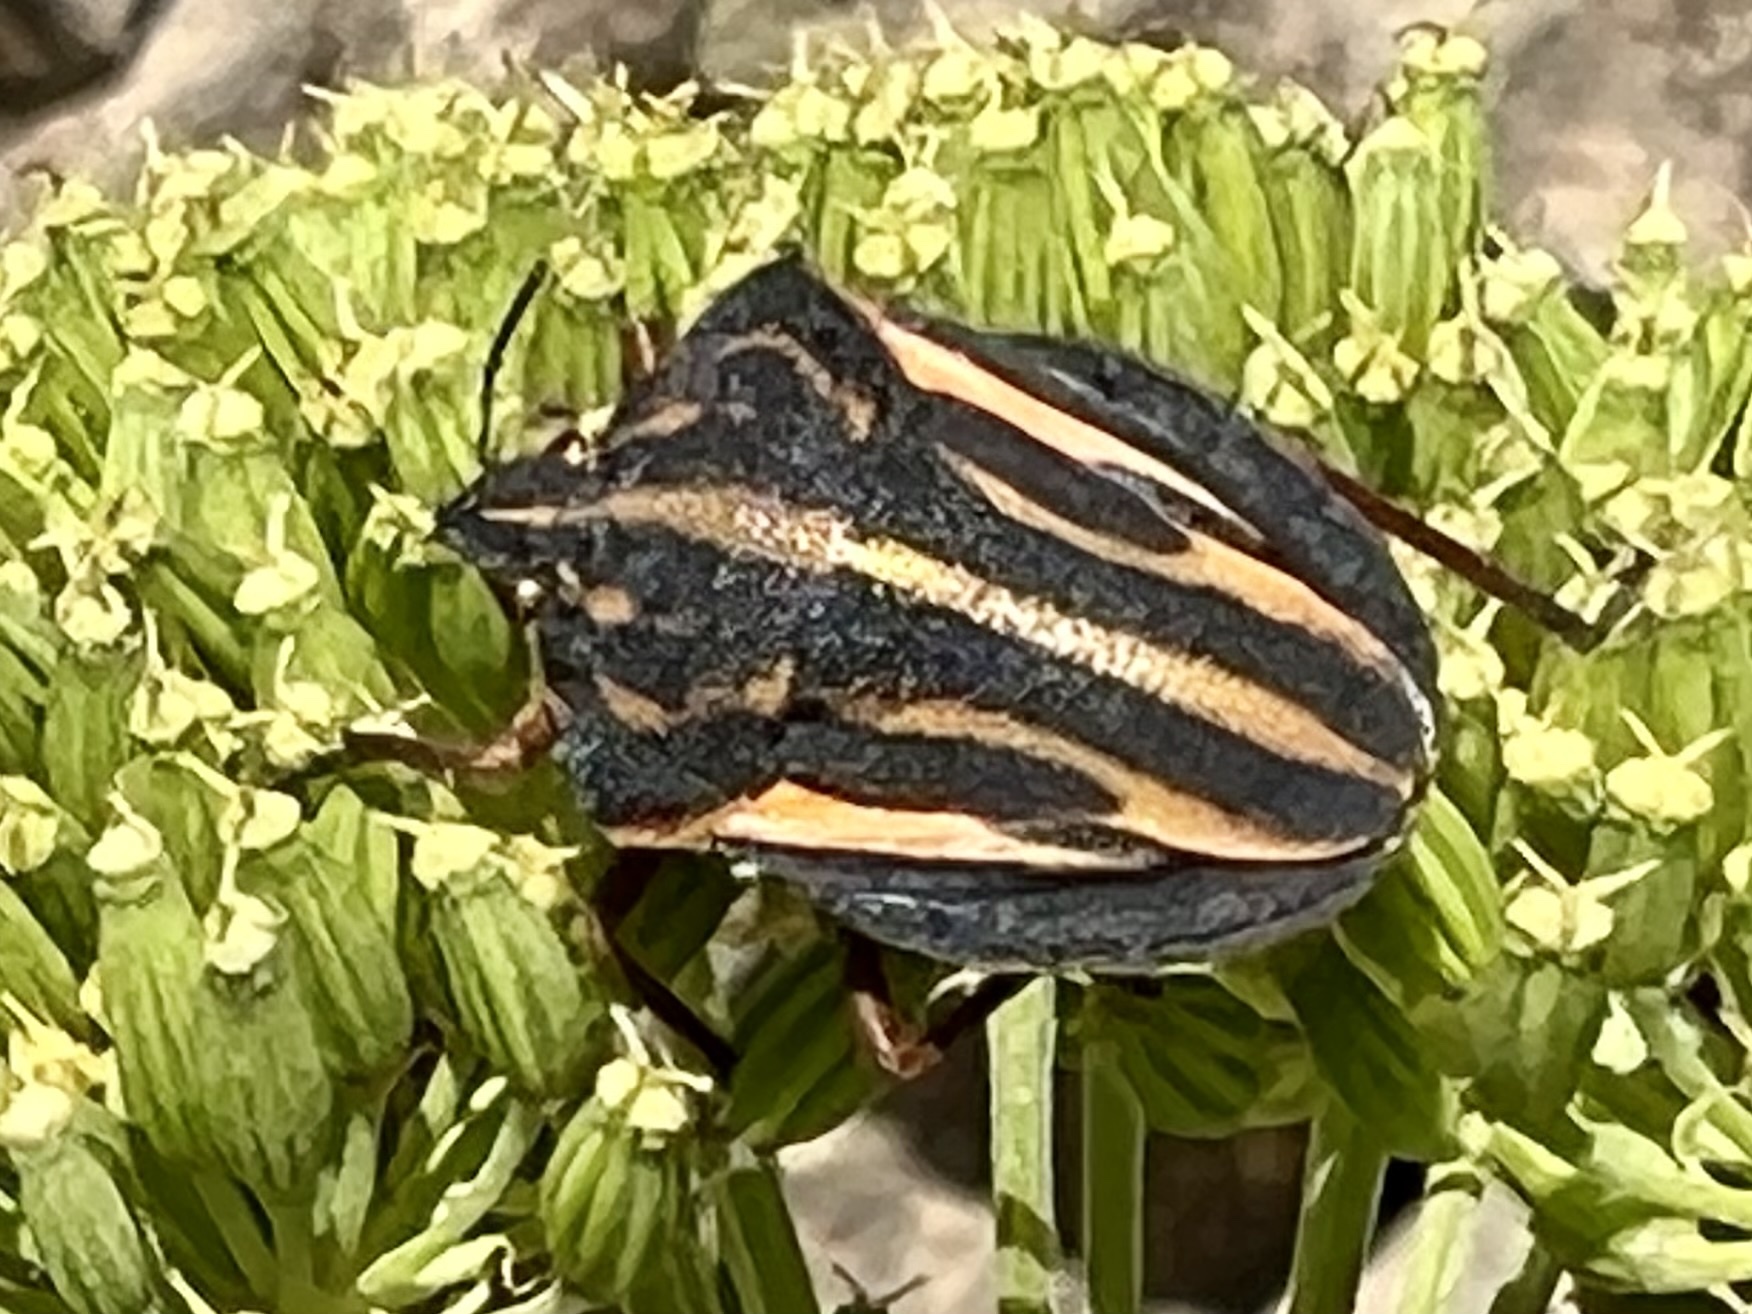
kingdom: Animalia
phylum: Arthropoda
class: Insecta
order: Hemiptera
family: Pentatomidae
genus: Graphosoma
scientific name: Graphosoma interruptum
